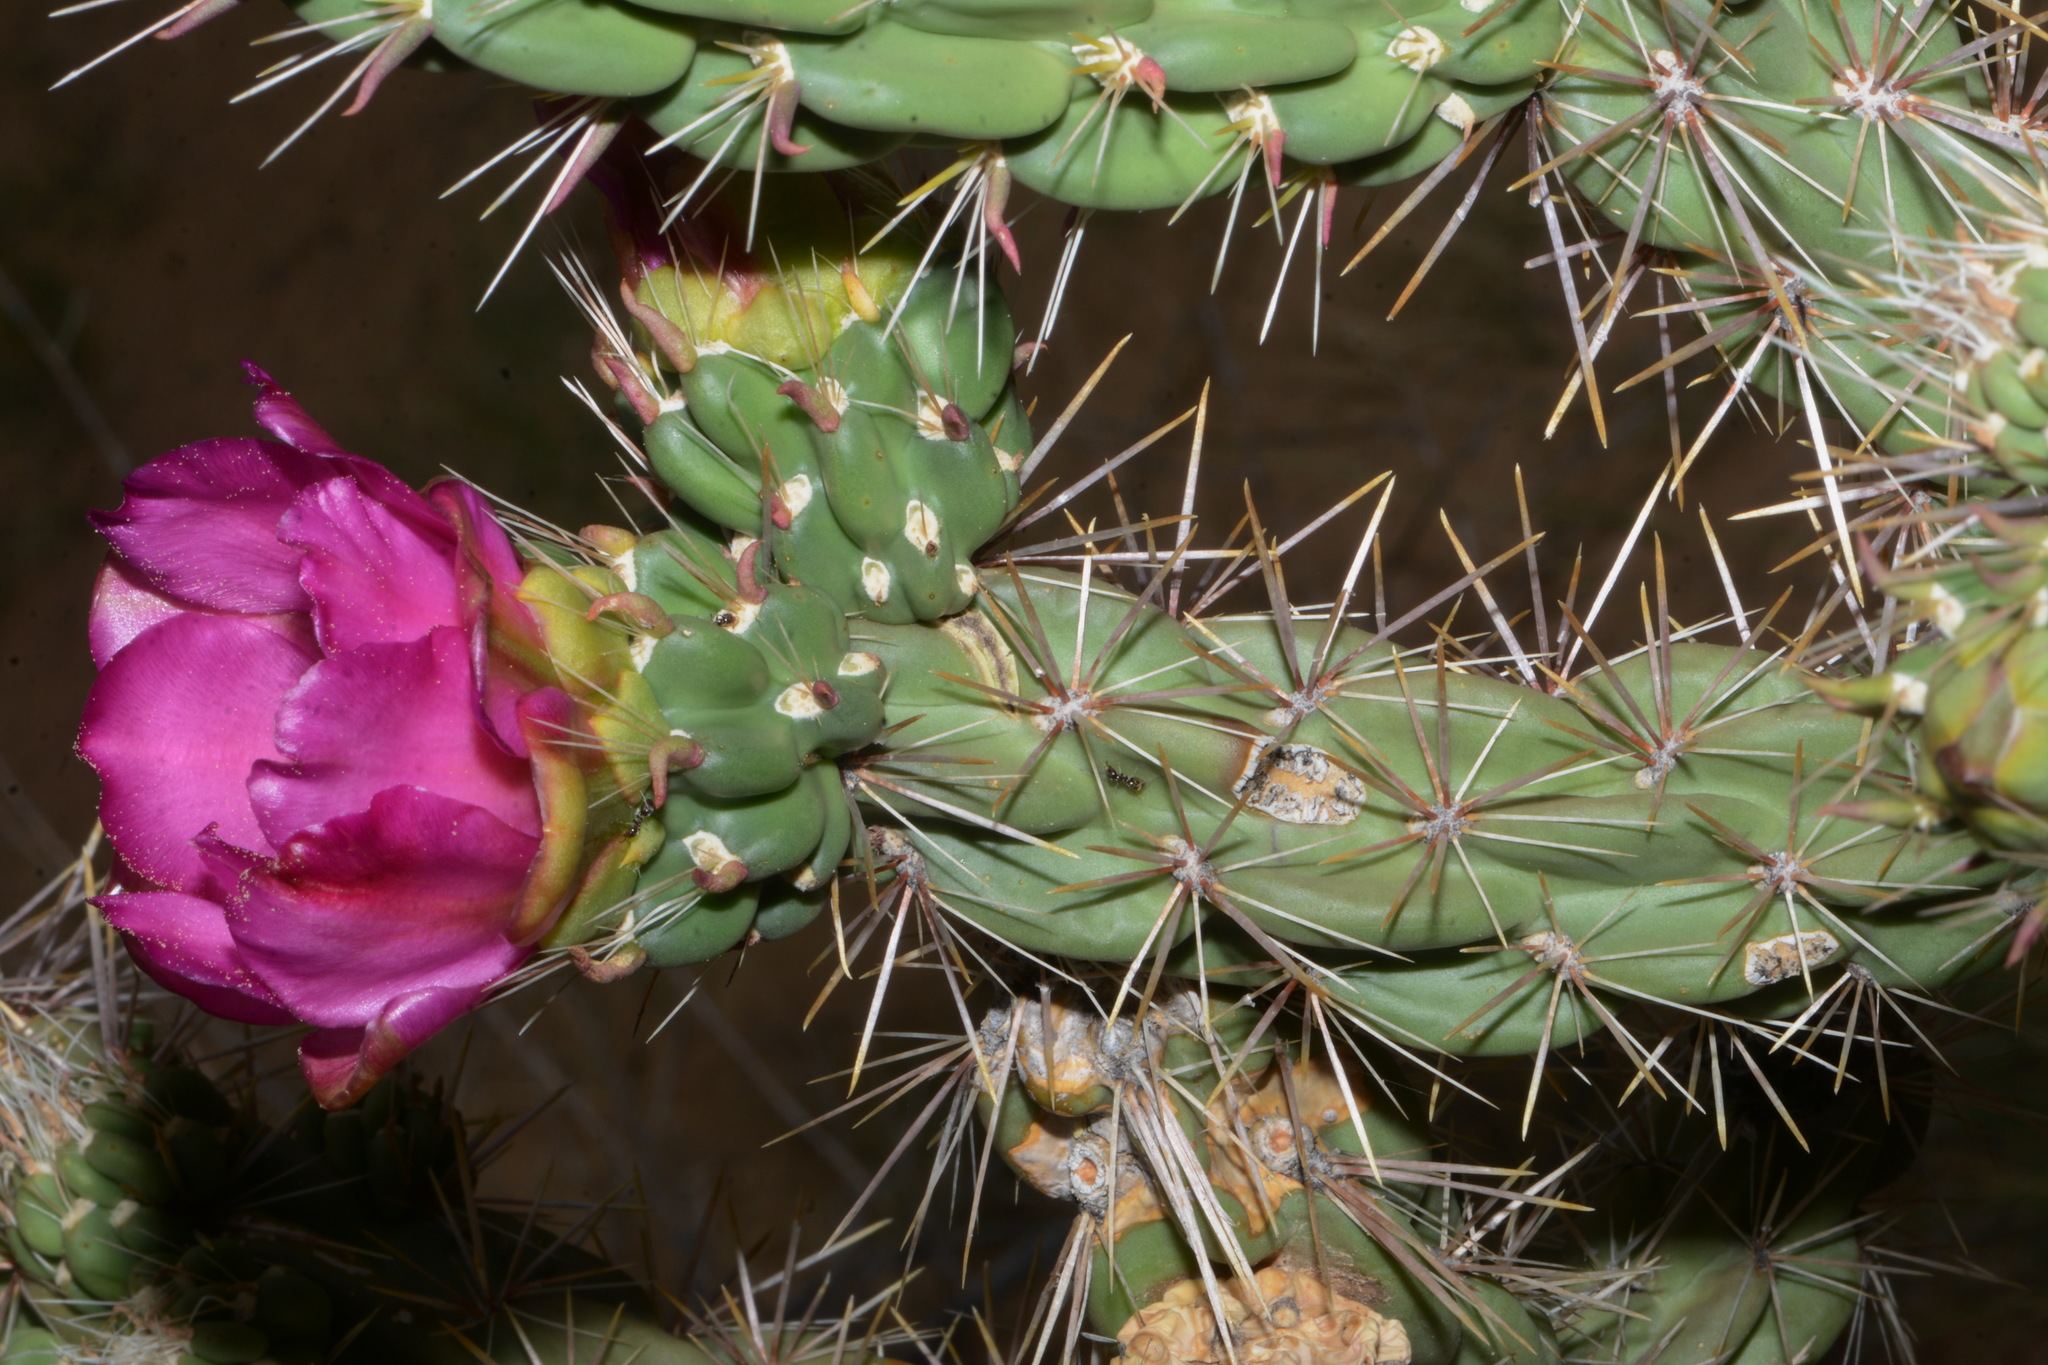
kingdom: Plantae
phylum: Tracheophyta
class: Magnoliopsida
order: Caryophyllales
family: Cactaceae
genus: Cylindropuntia
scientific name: Cylindropuntia imbricata
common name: Candelabrum cactus
